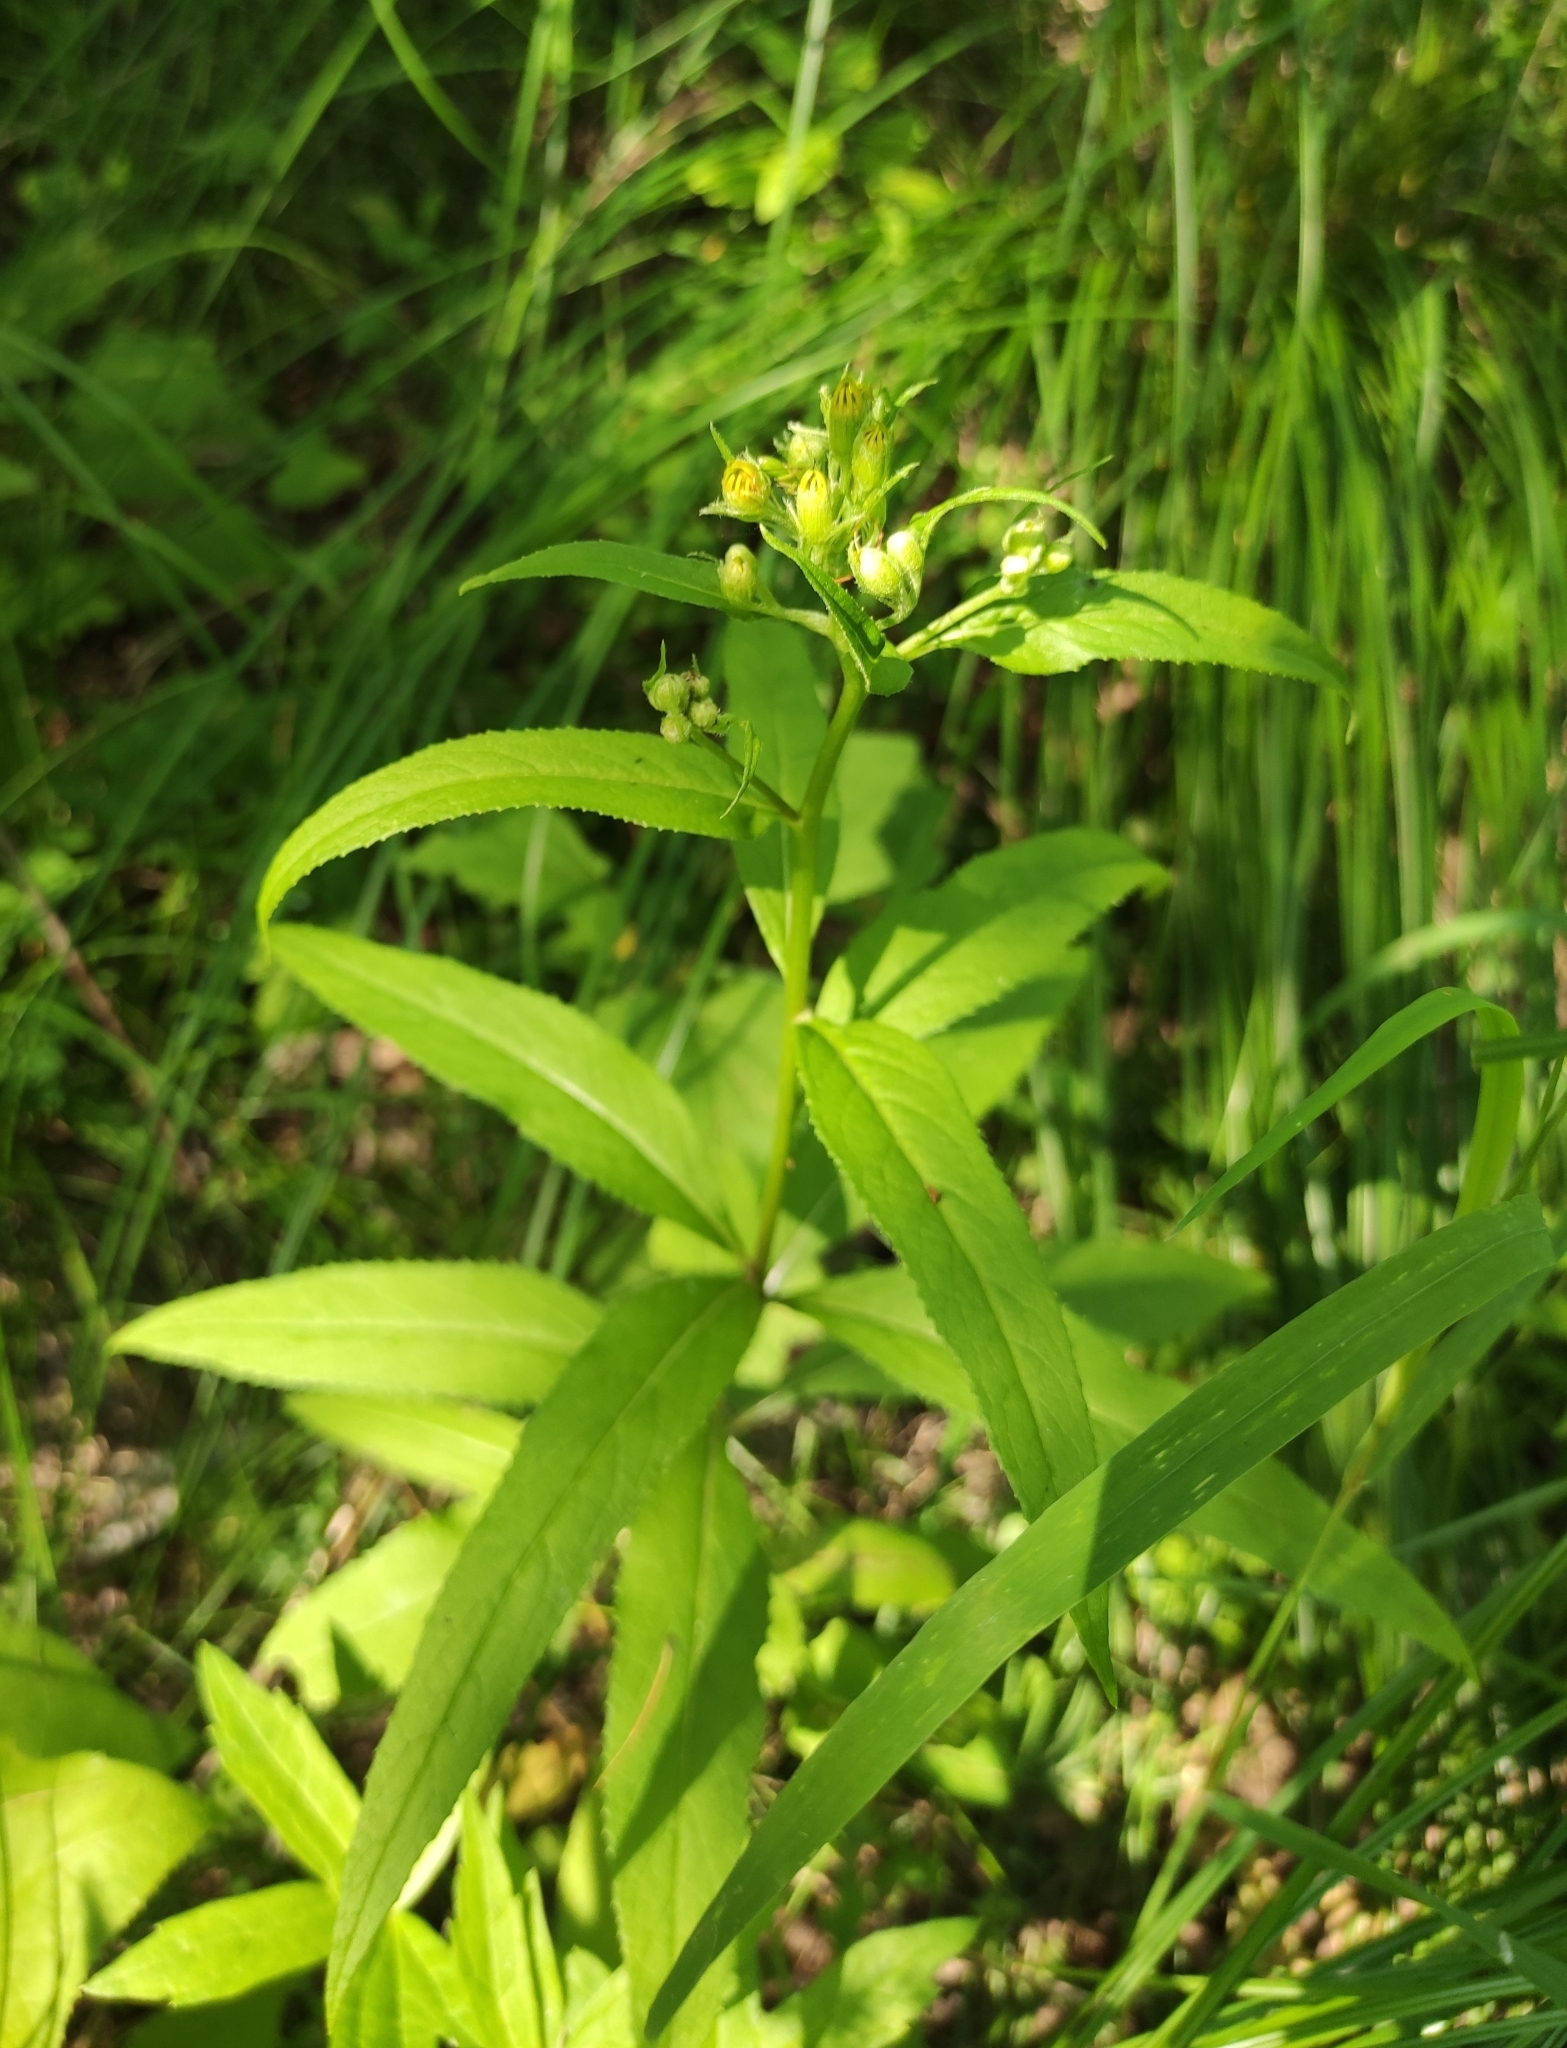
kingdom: Plantae
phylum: Tracheophyta
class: Magnoliopsida
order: Asterales
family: Asteraceae
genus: Senecio
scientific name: Senecio nemorensis
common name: Alpine ragwort
